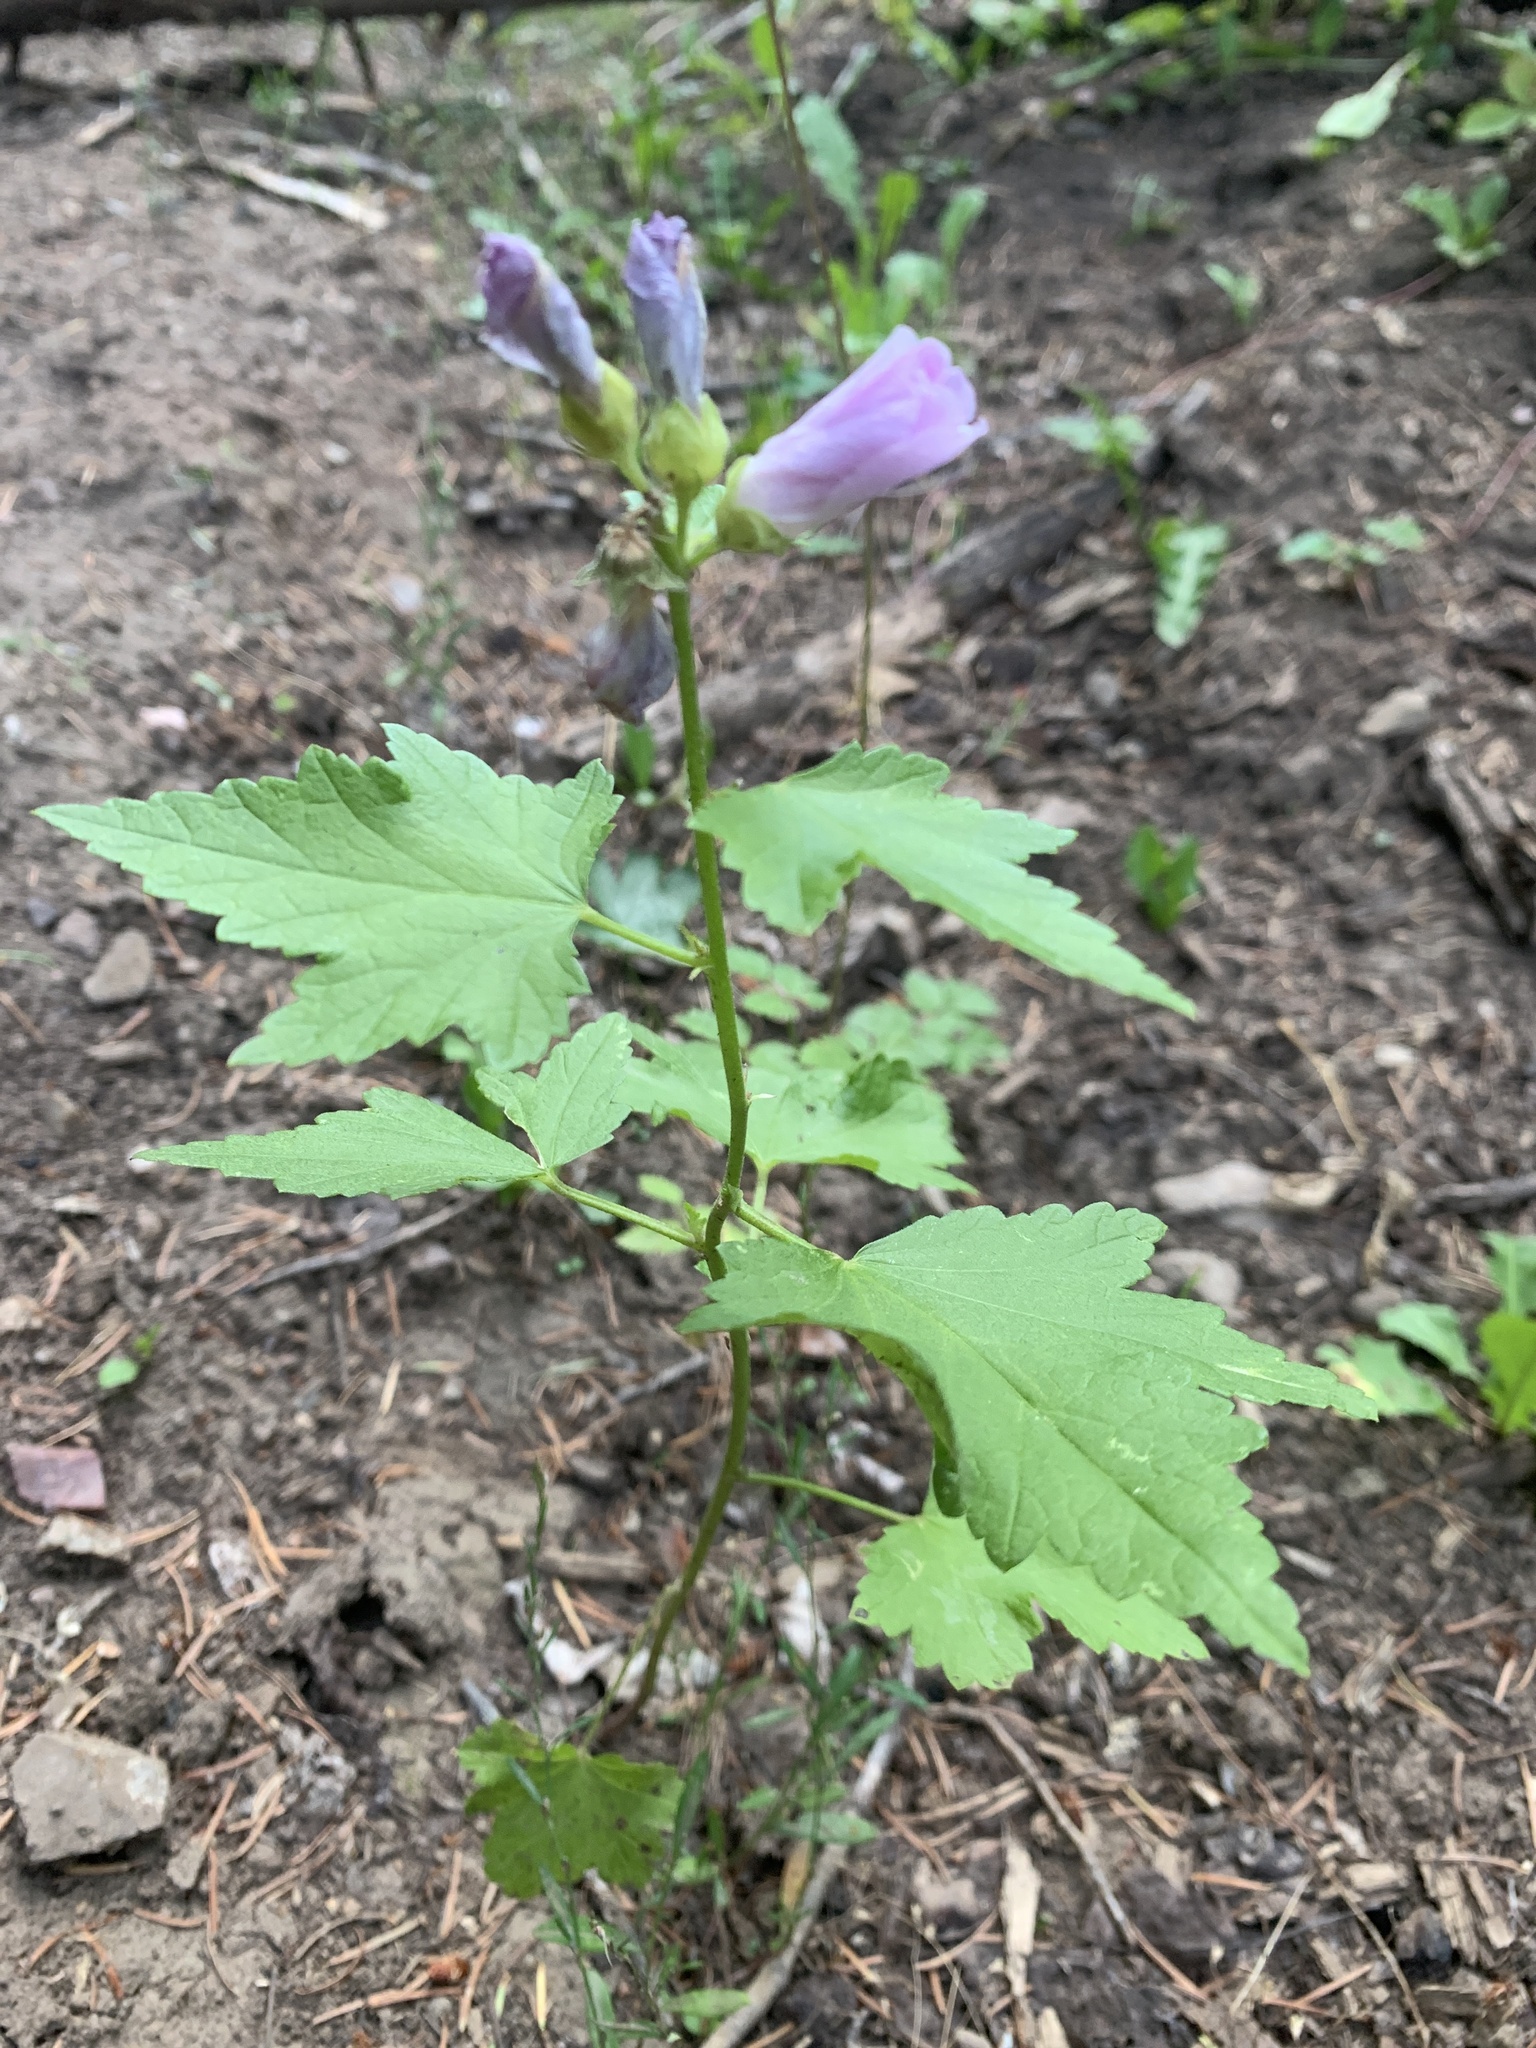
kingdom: Plantae
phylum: Tracheophyta
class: Magnoliopsida
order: Malvales
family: Malvaceae
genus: Iliamna
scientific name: Iliamna rivularis
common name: Wild hollyhock
